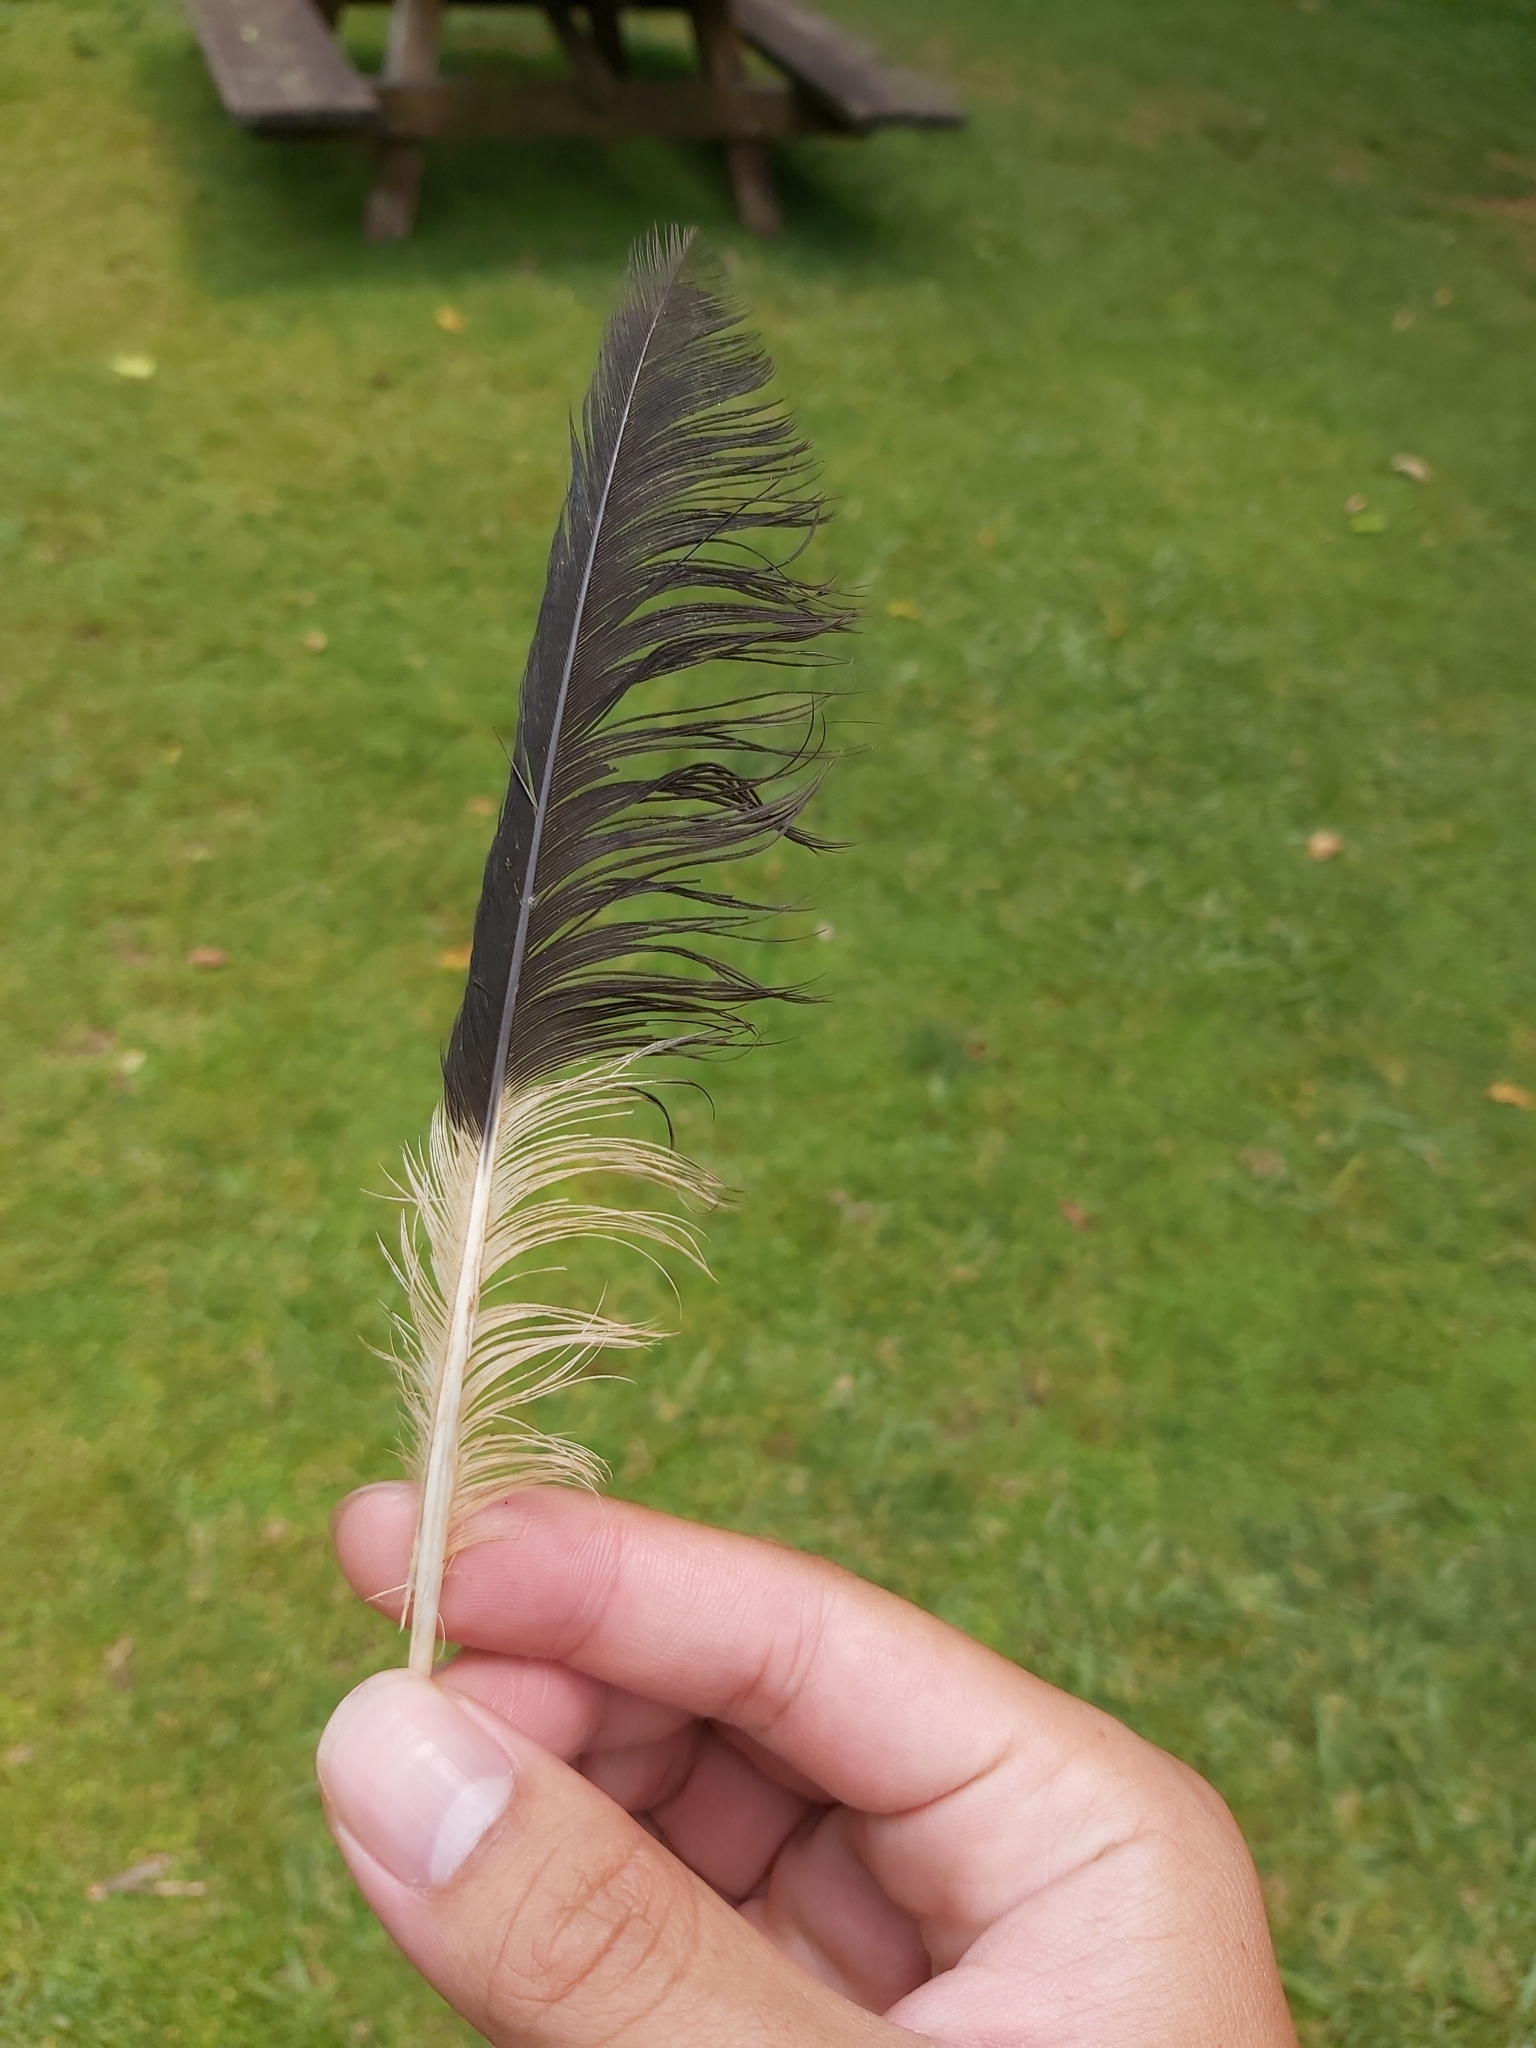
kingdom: Animalia
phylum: Chordata
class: Aves
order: Passeriformes
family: Cracticidae
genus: Strepera
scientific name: Strepera graculina
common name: Pied currawong
